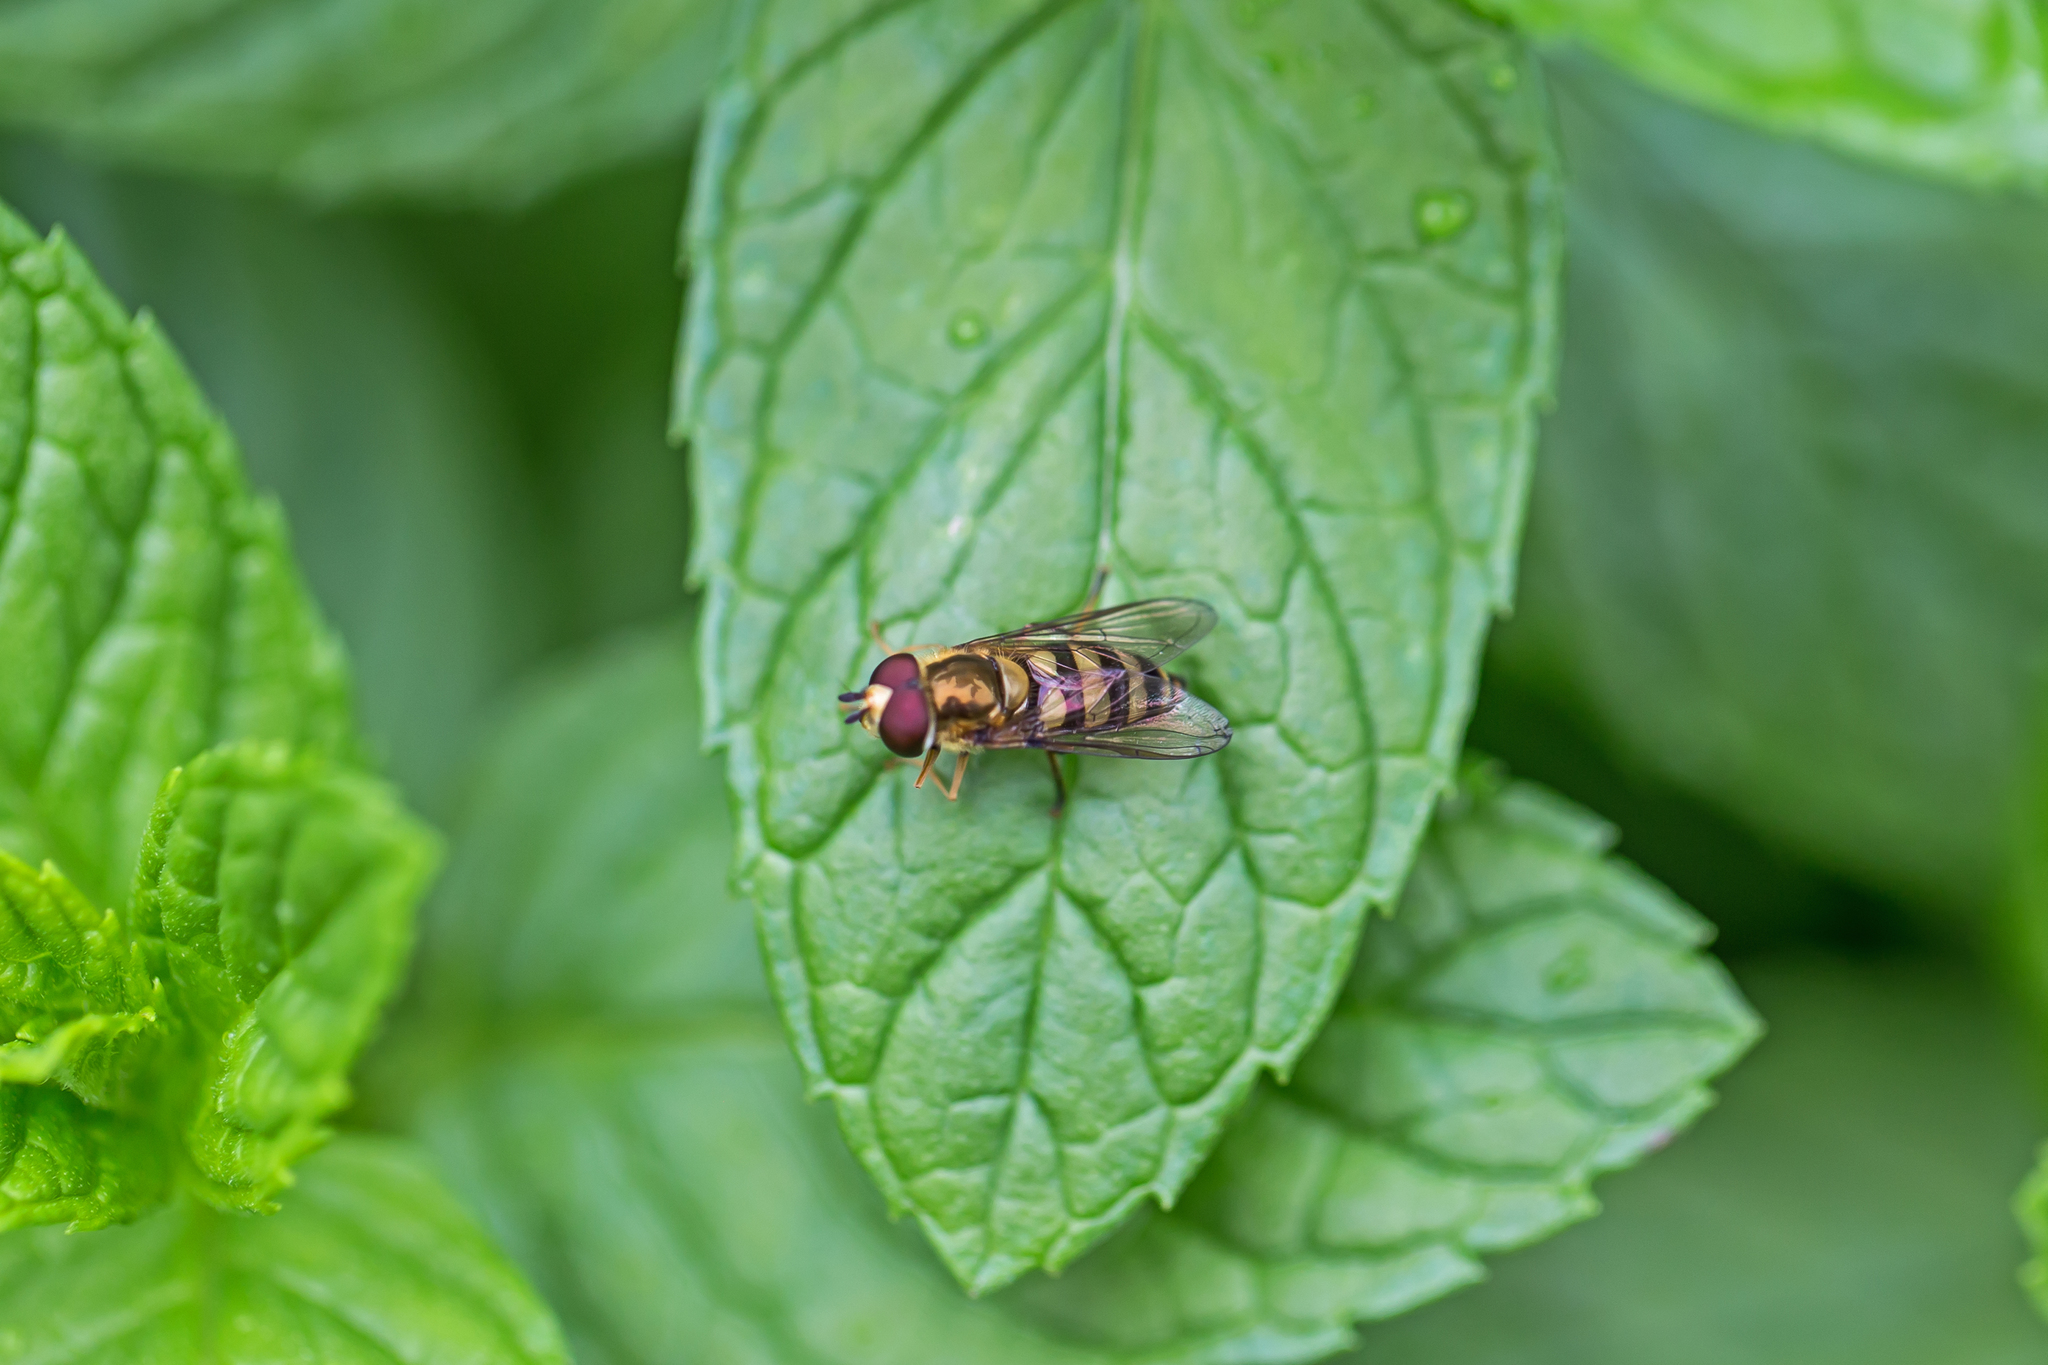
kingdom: Animalia
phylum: Arthropoda
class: Insecta
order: Diptera
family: Syrphidae
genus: Eupeodes
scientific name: Eupeodes
